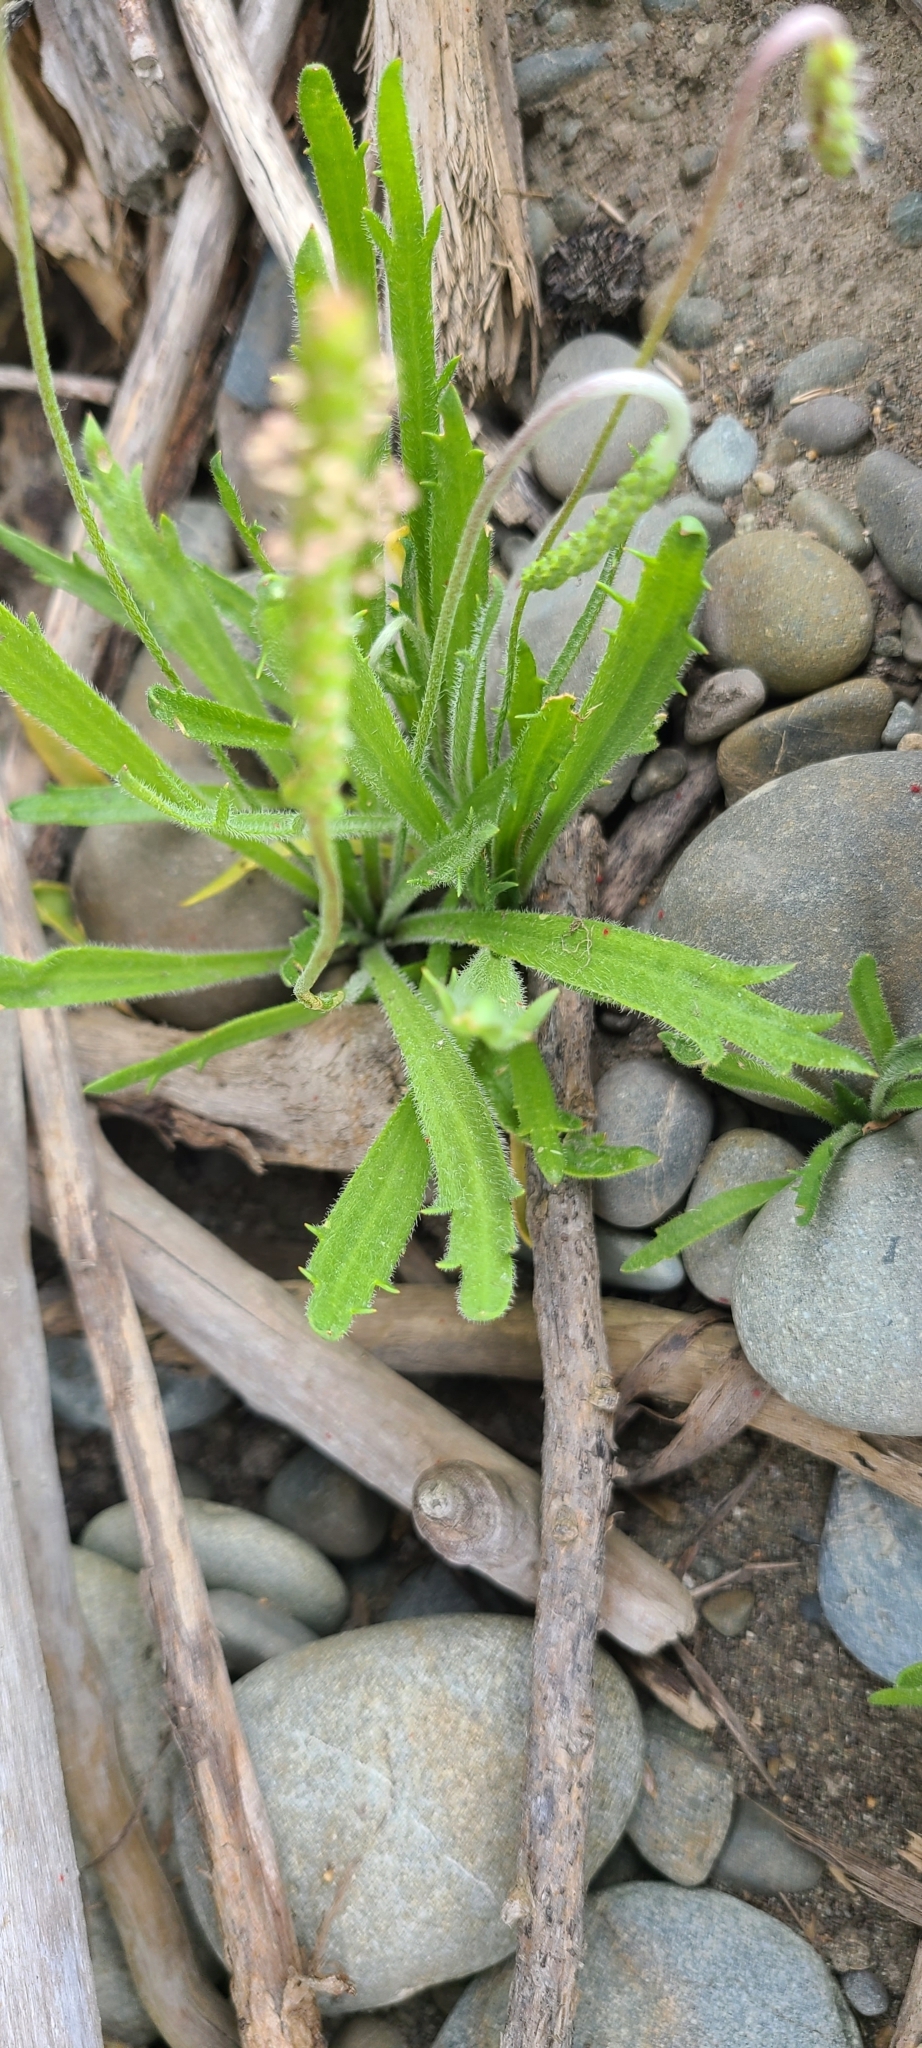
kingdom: Plantae
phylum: Tracheophyta
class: Magnoliopsida
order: Lamiales
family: Plantaginaceae
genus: Plantago
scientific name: Plantago coronopus
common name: Buck's-horn plantain
